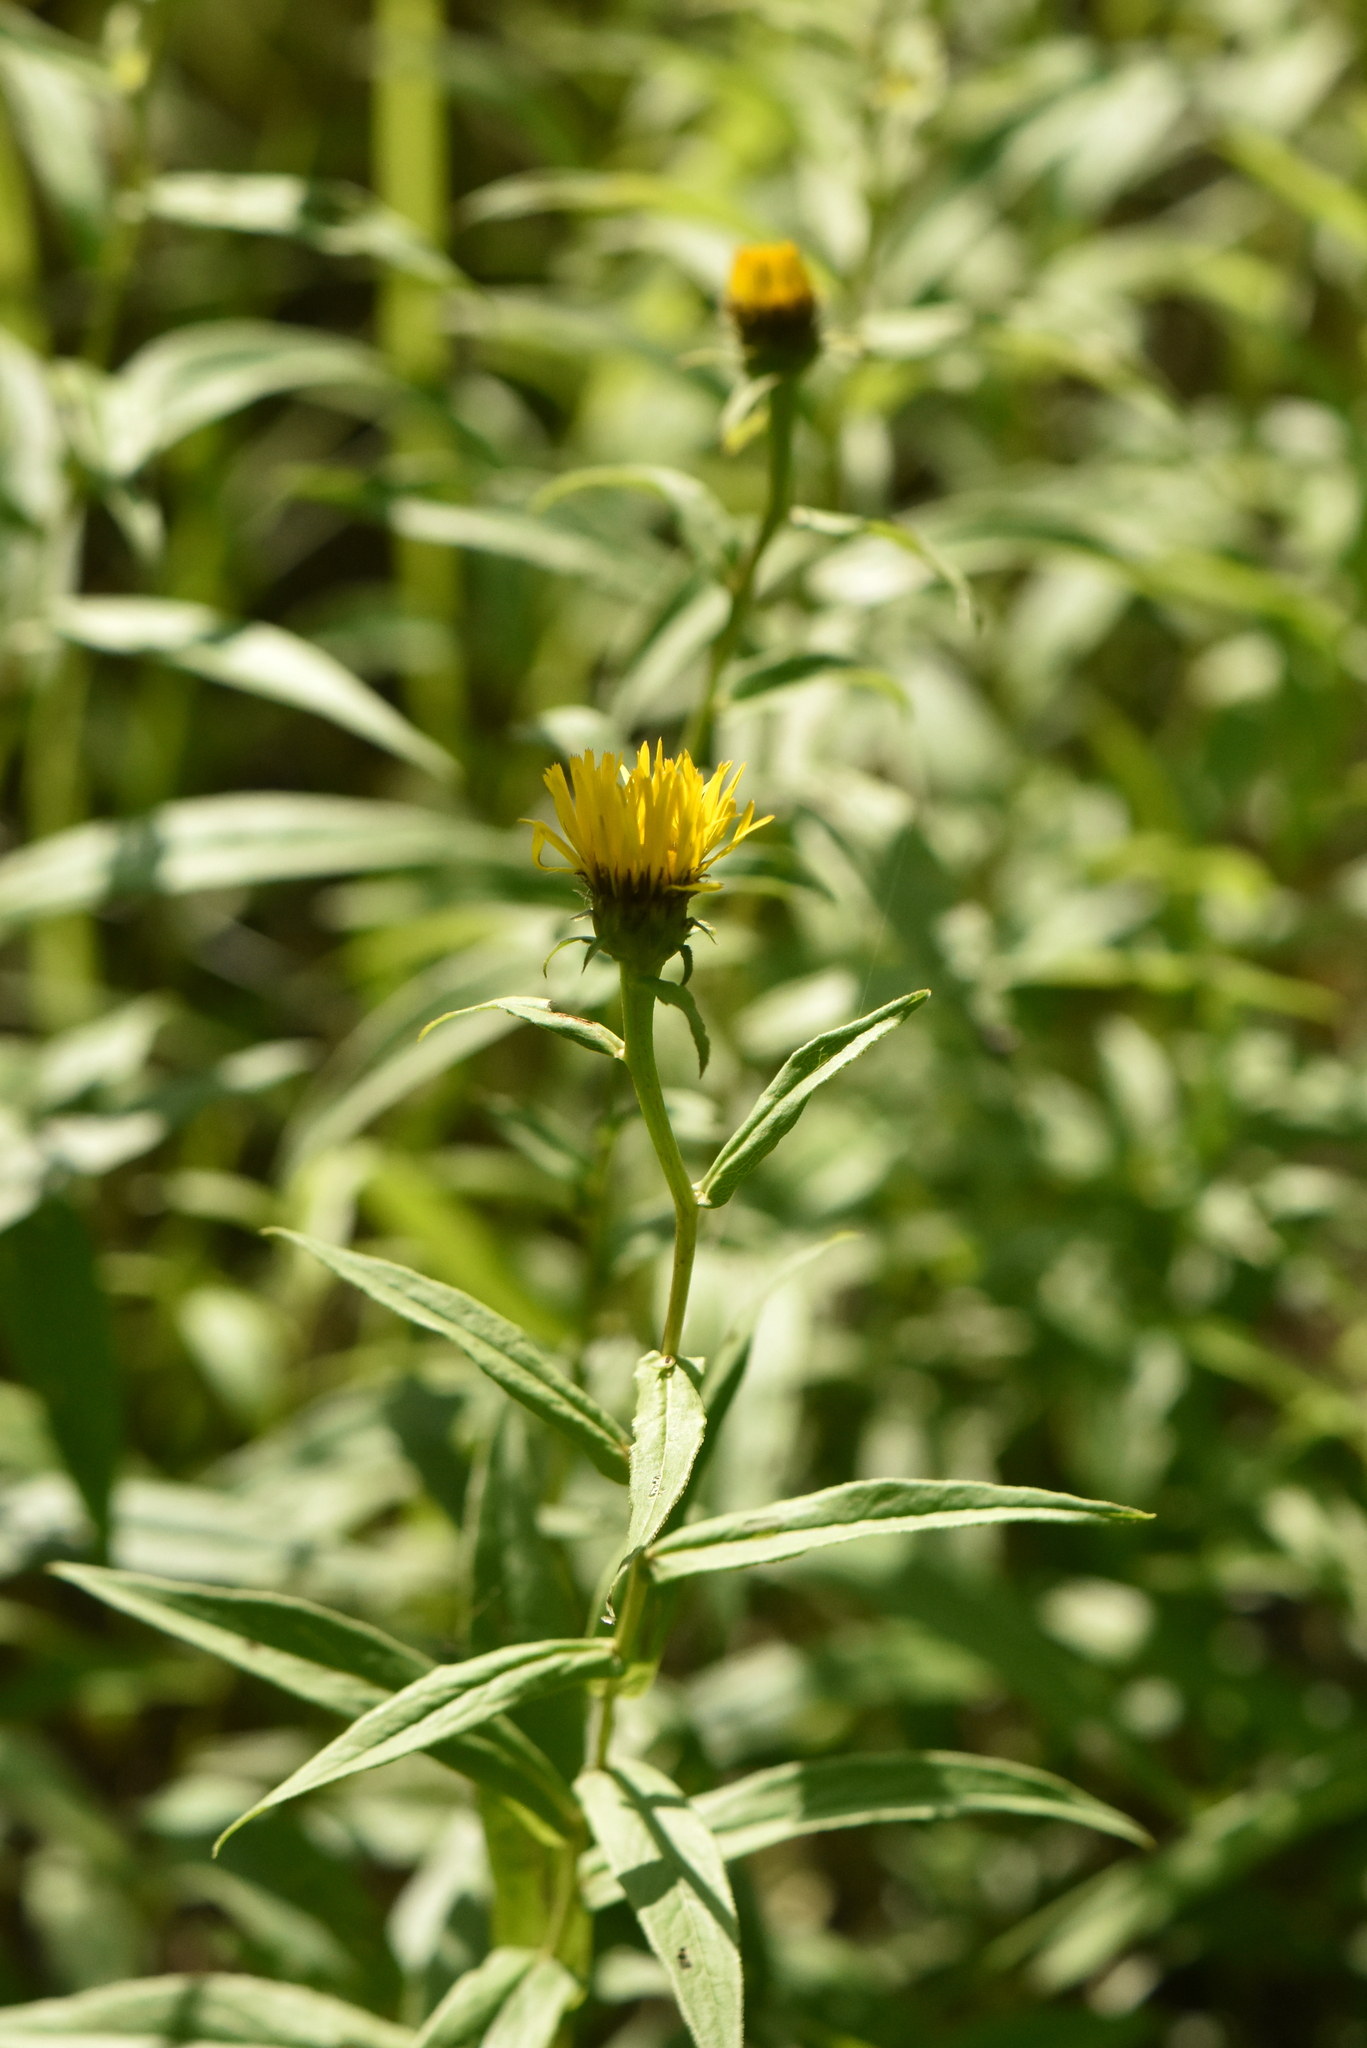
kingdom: Plantae
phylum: Tracheophyta
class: Magnoliopsida
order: Asterales
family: Asteraceae
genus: Pentanema
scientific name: Pentanema salicinum
